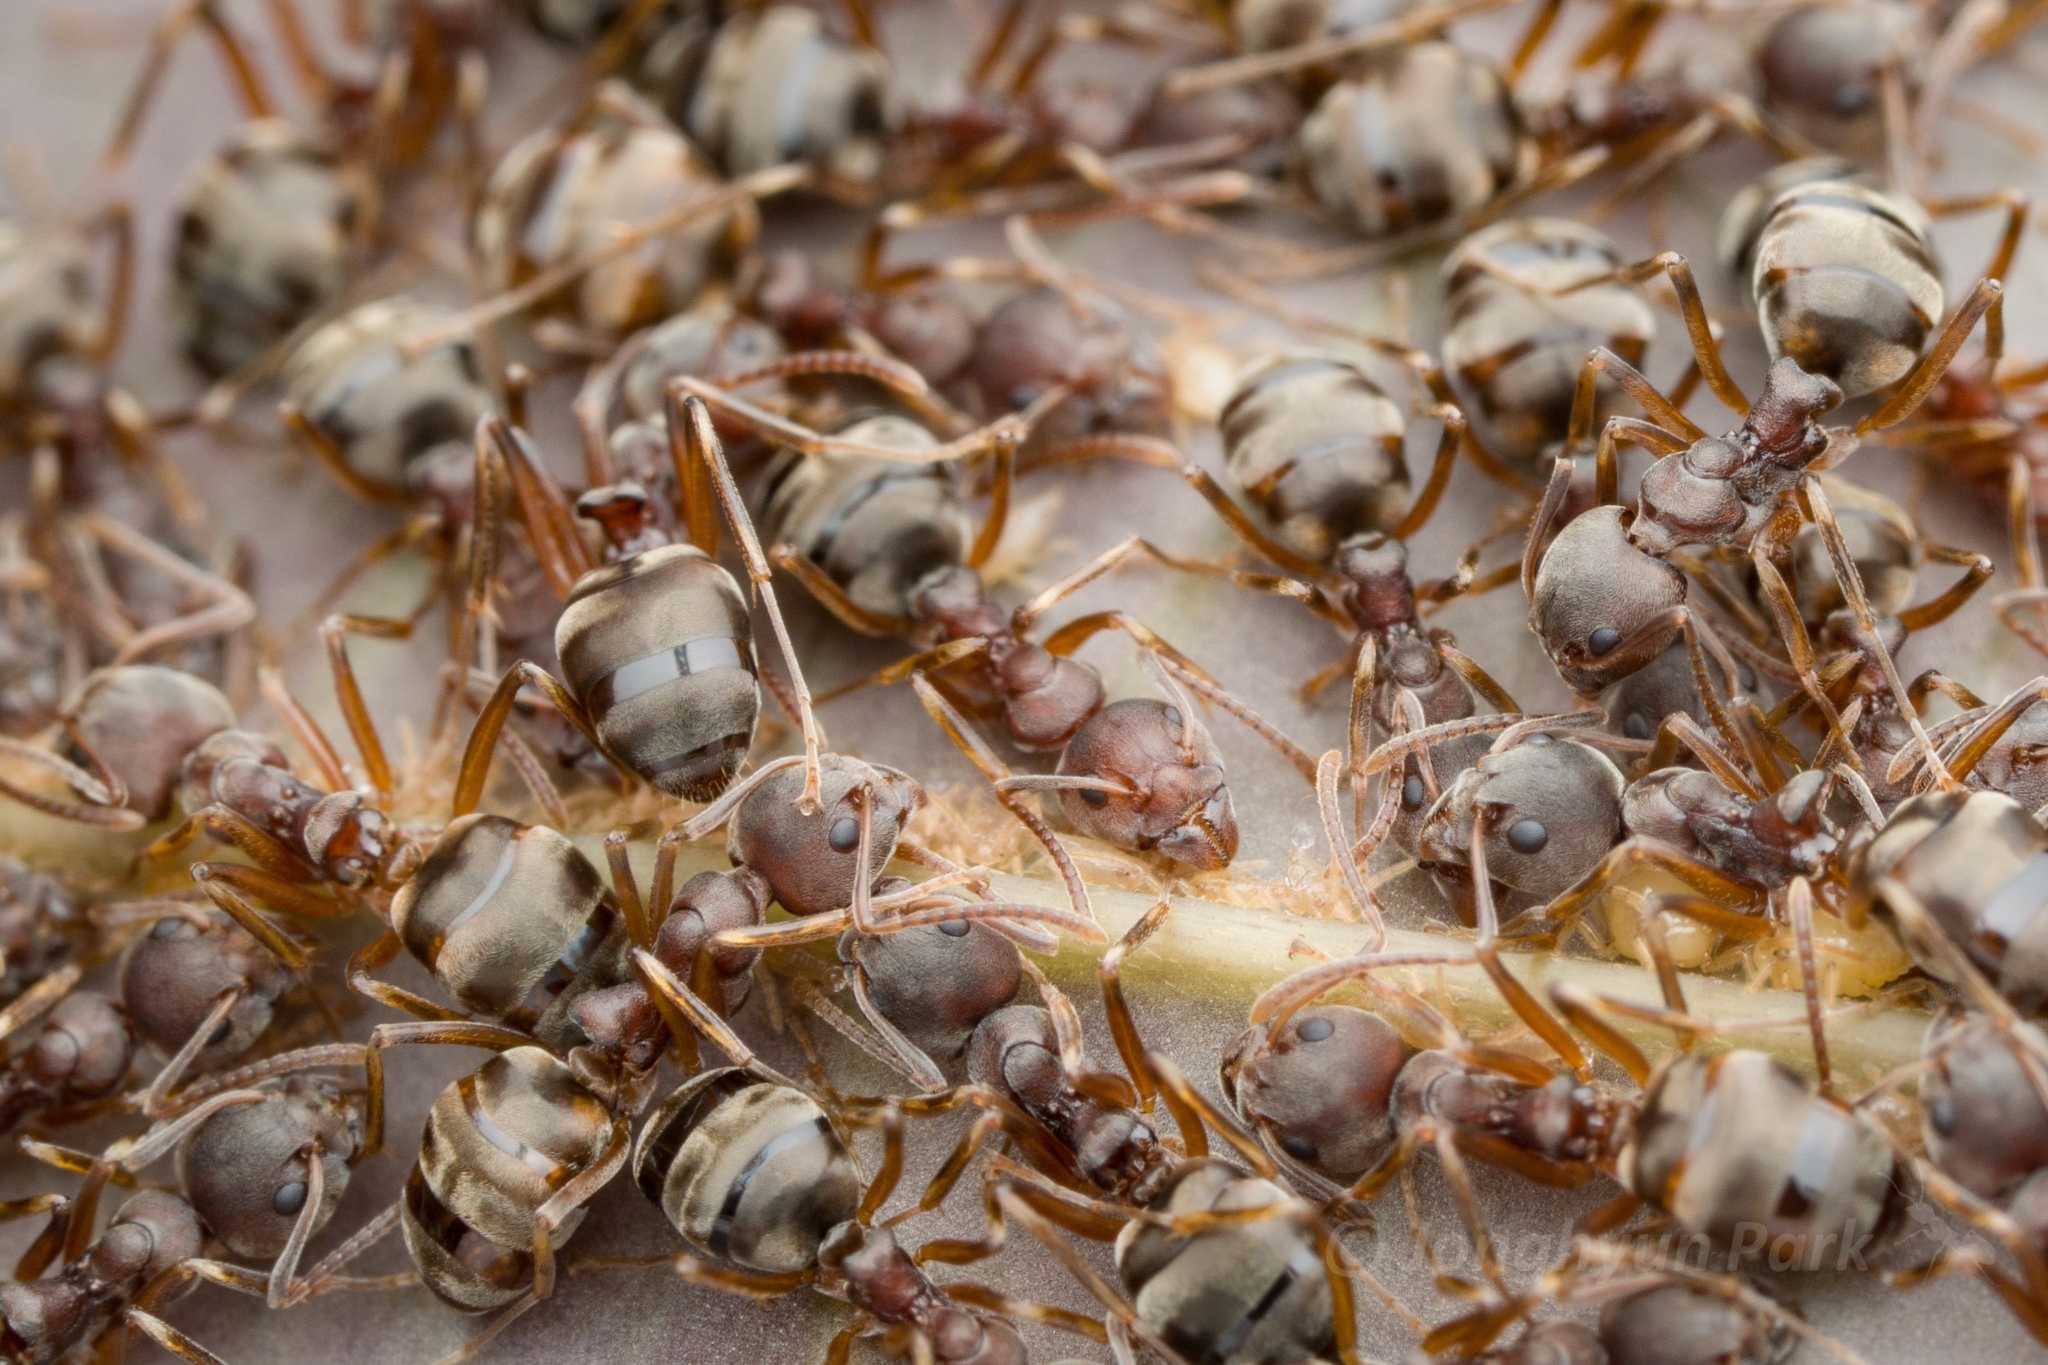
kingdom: Animalia
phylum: Arthropoda
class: Insecta
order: Hymenoptera
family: Formicidae
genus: Dolichoderus
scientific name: Dolichoderus
